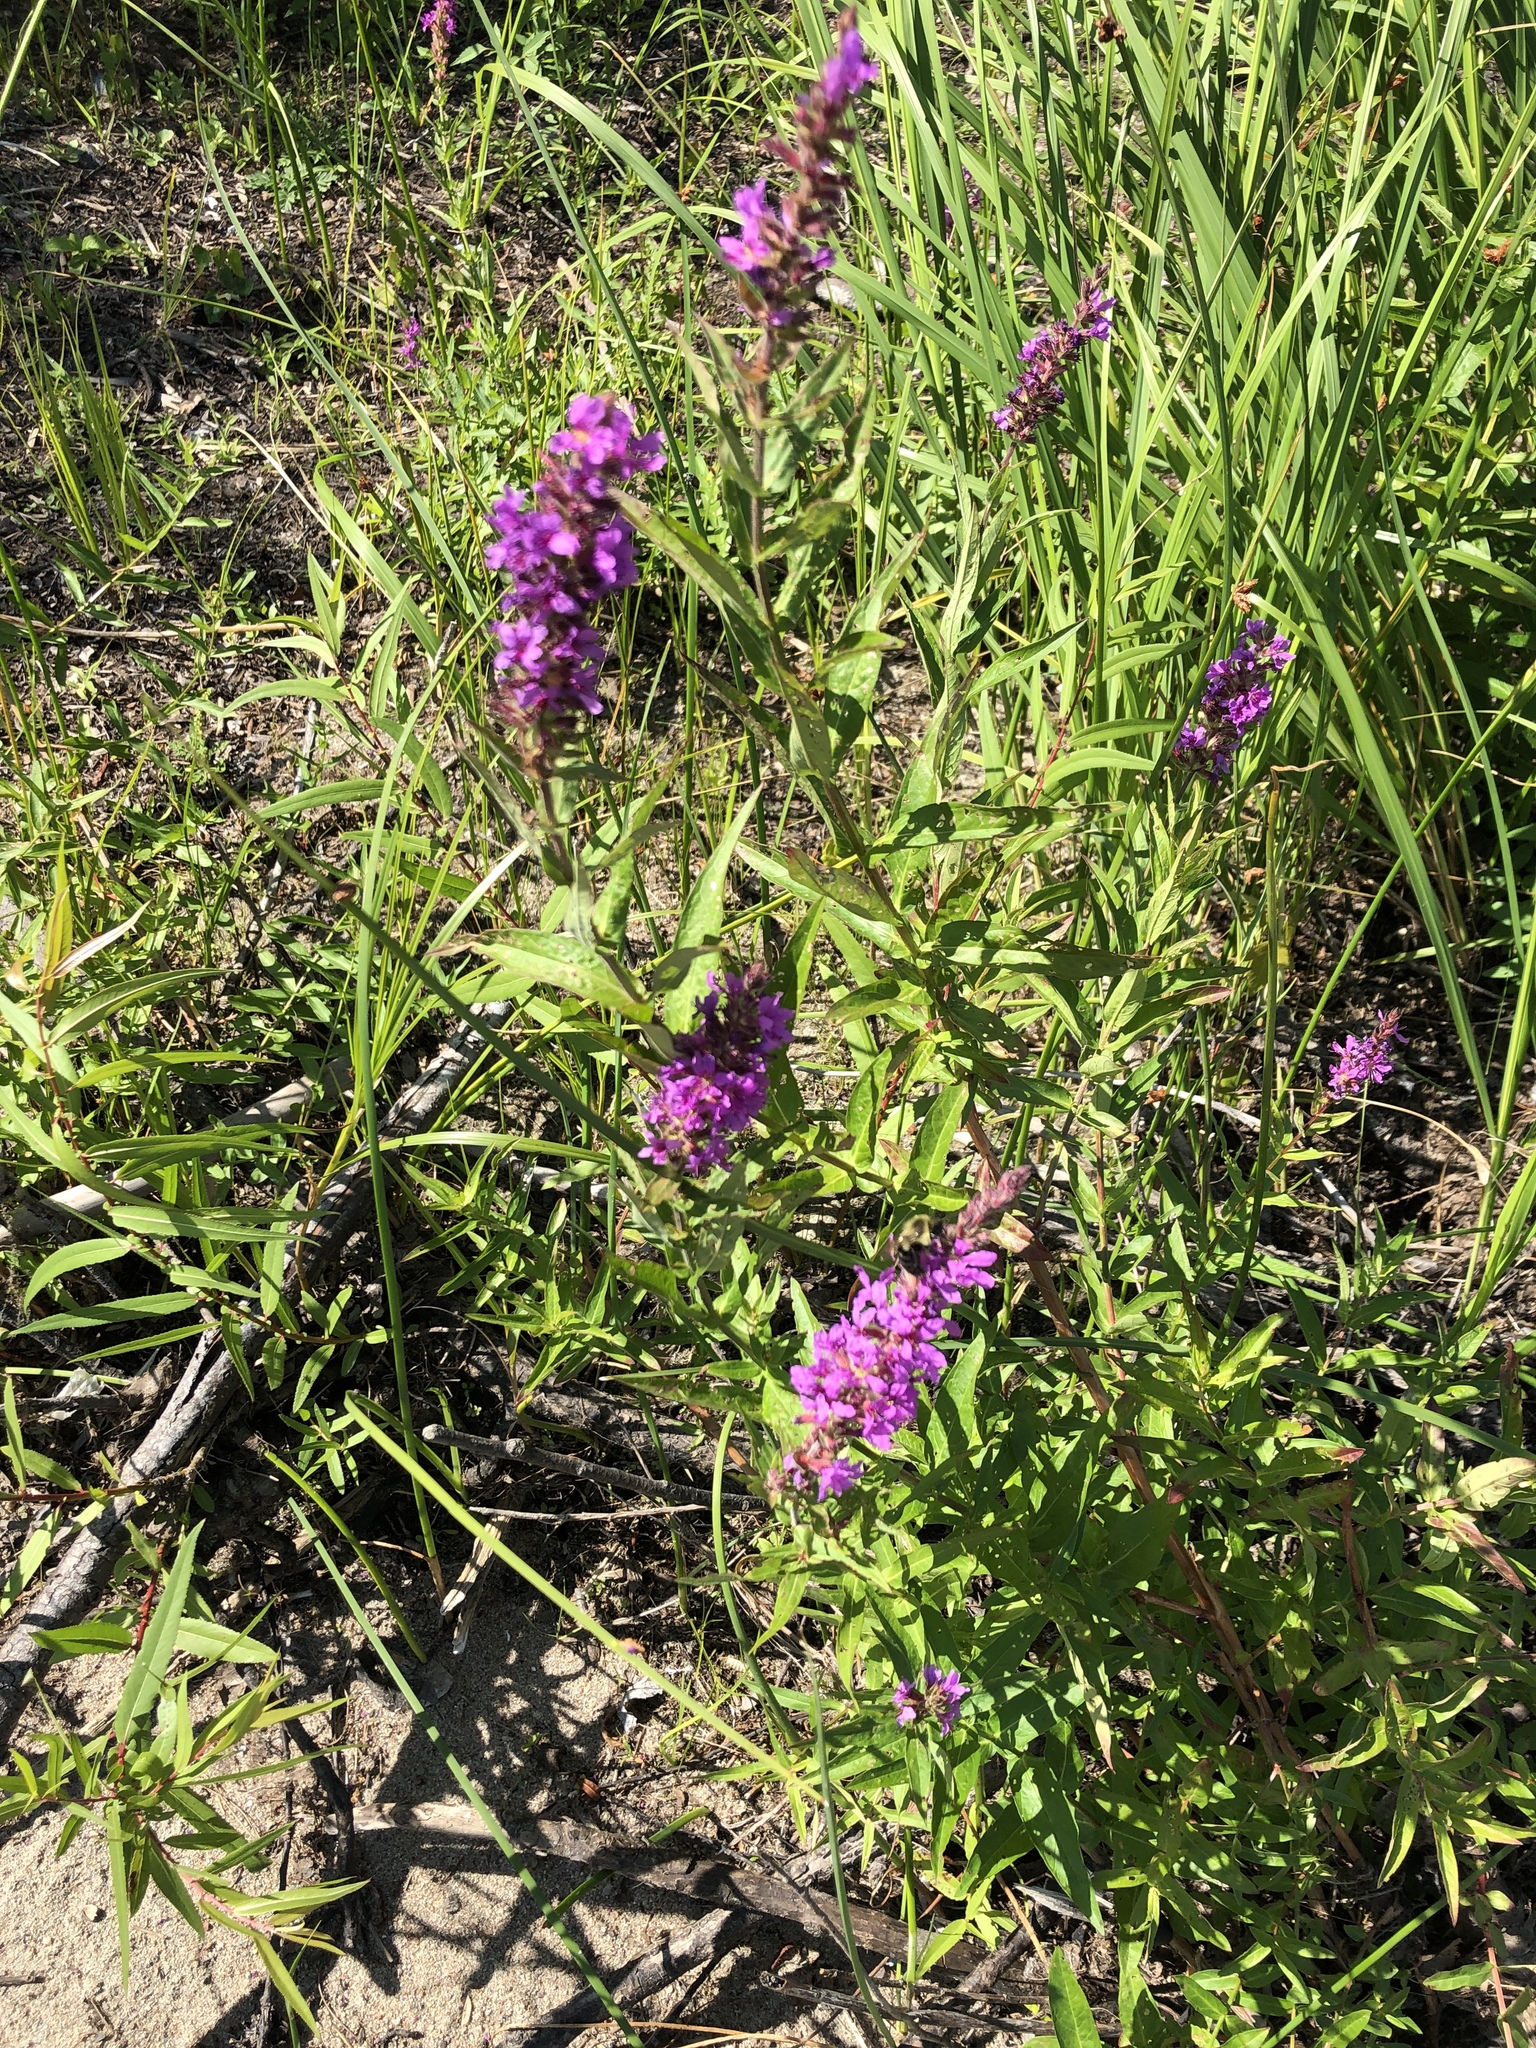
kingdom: Plantae
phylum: Tracheophyta
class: Magnoliopsida
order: Myrtales
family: Lythraceae
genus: Lythrum
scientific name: Lythrum salicaria
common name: Purple loosestrife
